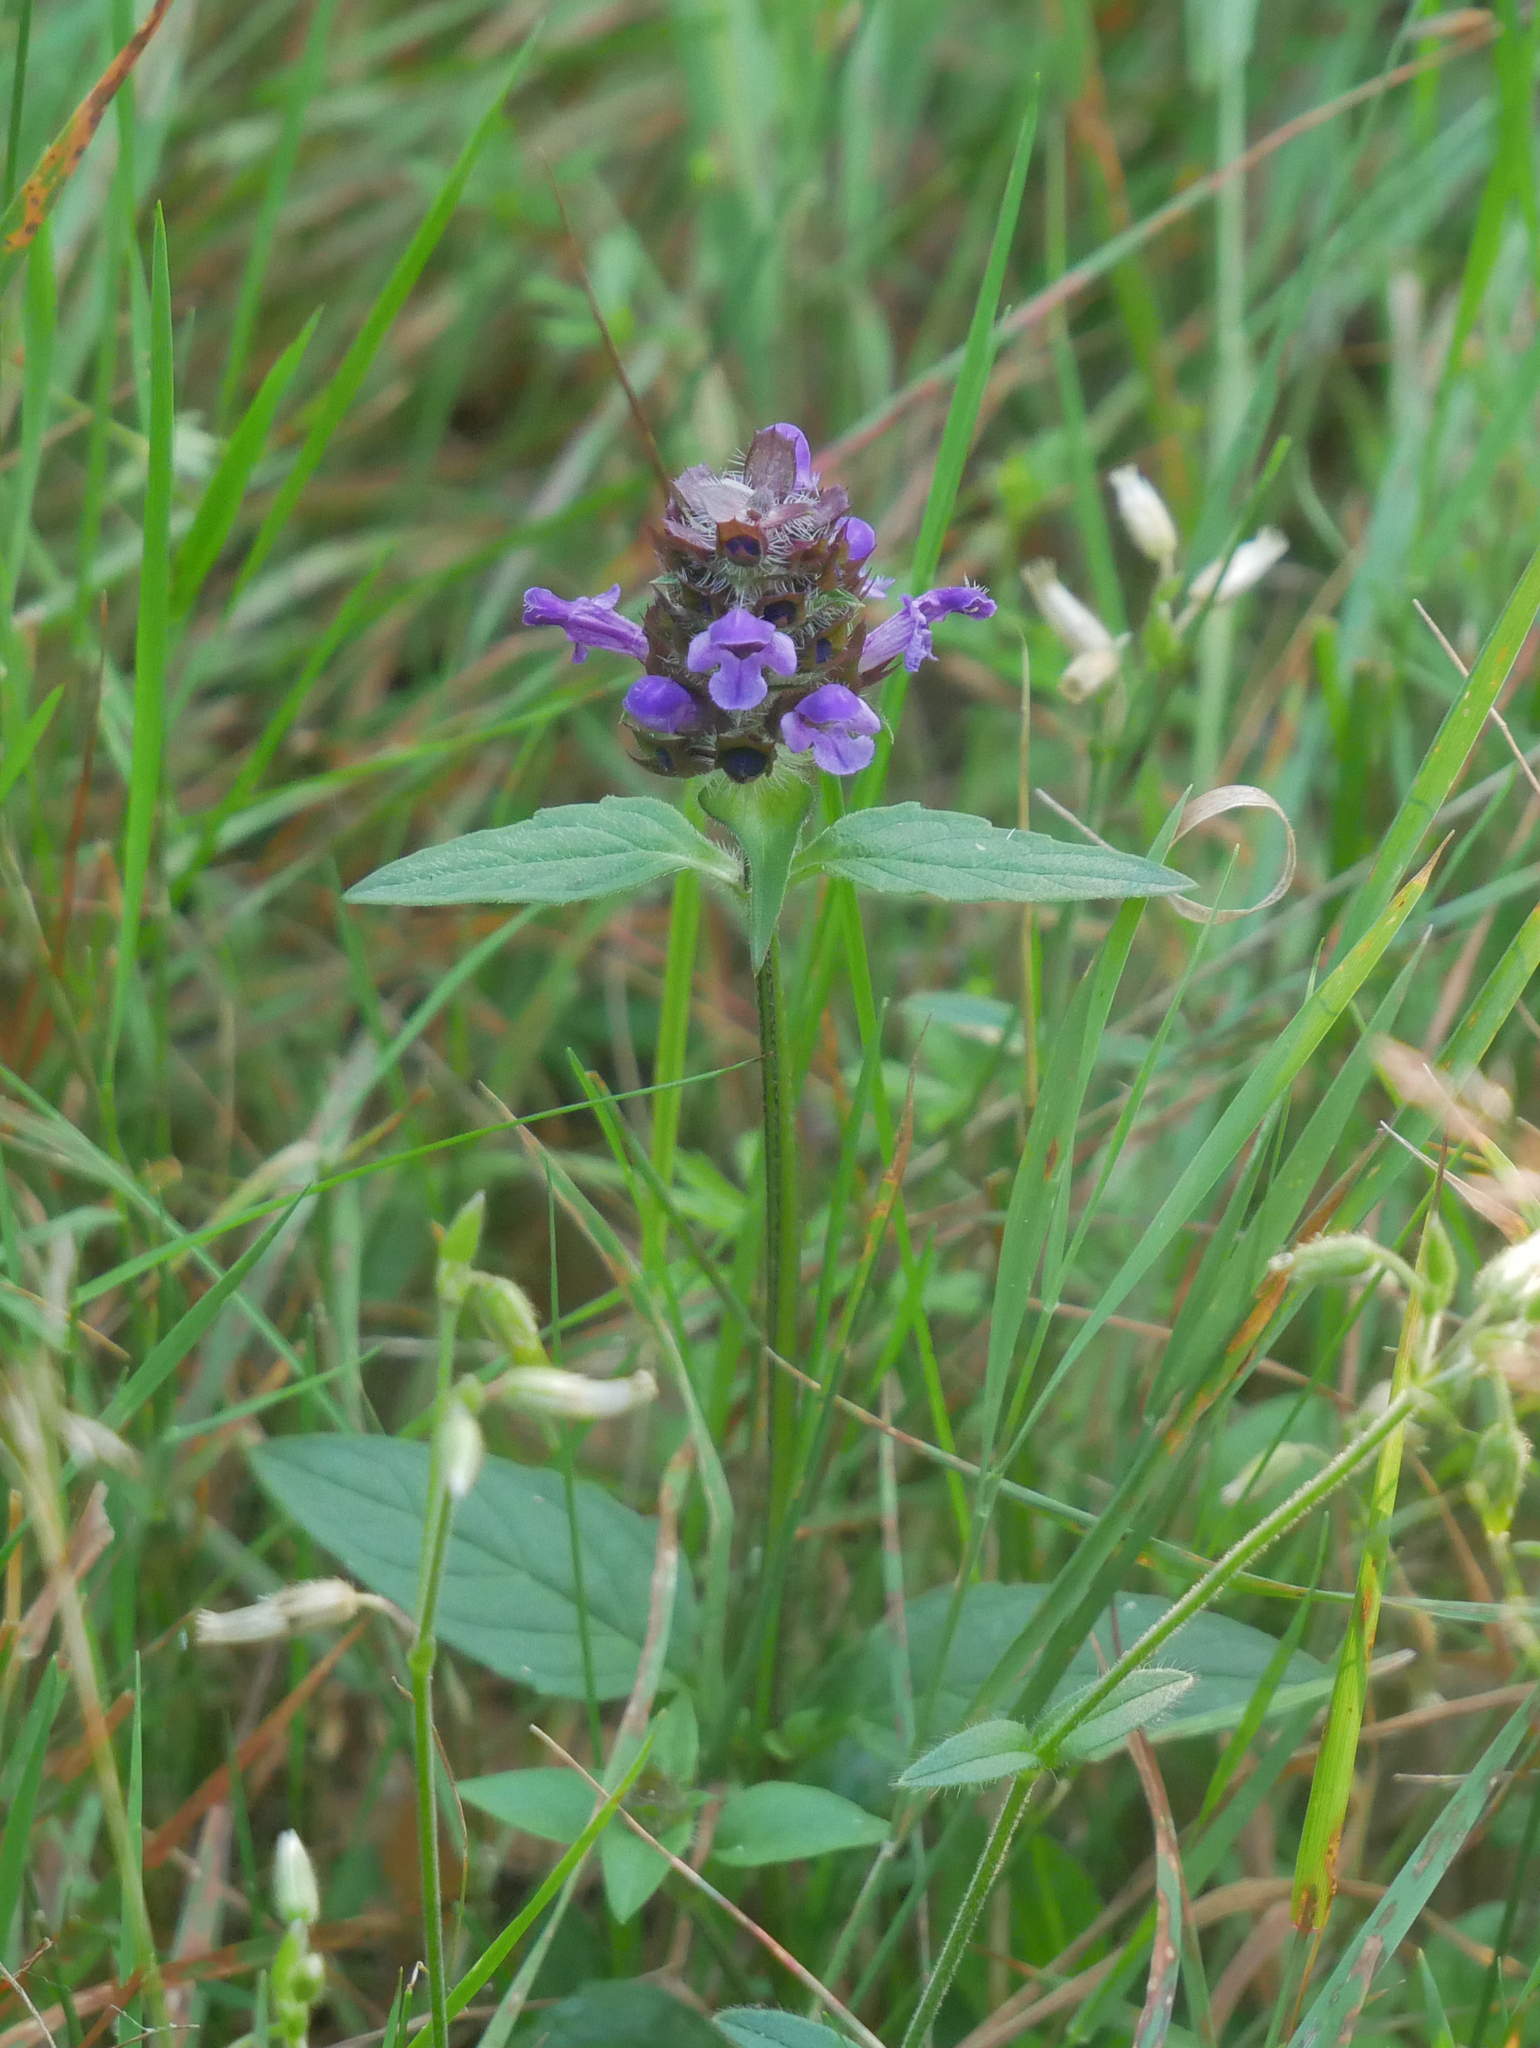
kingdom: Plantae
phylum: Tracheophyta
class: Magnoliopsida
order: Lamiales
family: Lamiaceae
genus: Prunella
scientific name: Prunella vulgaris
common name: Heal-all
